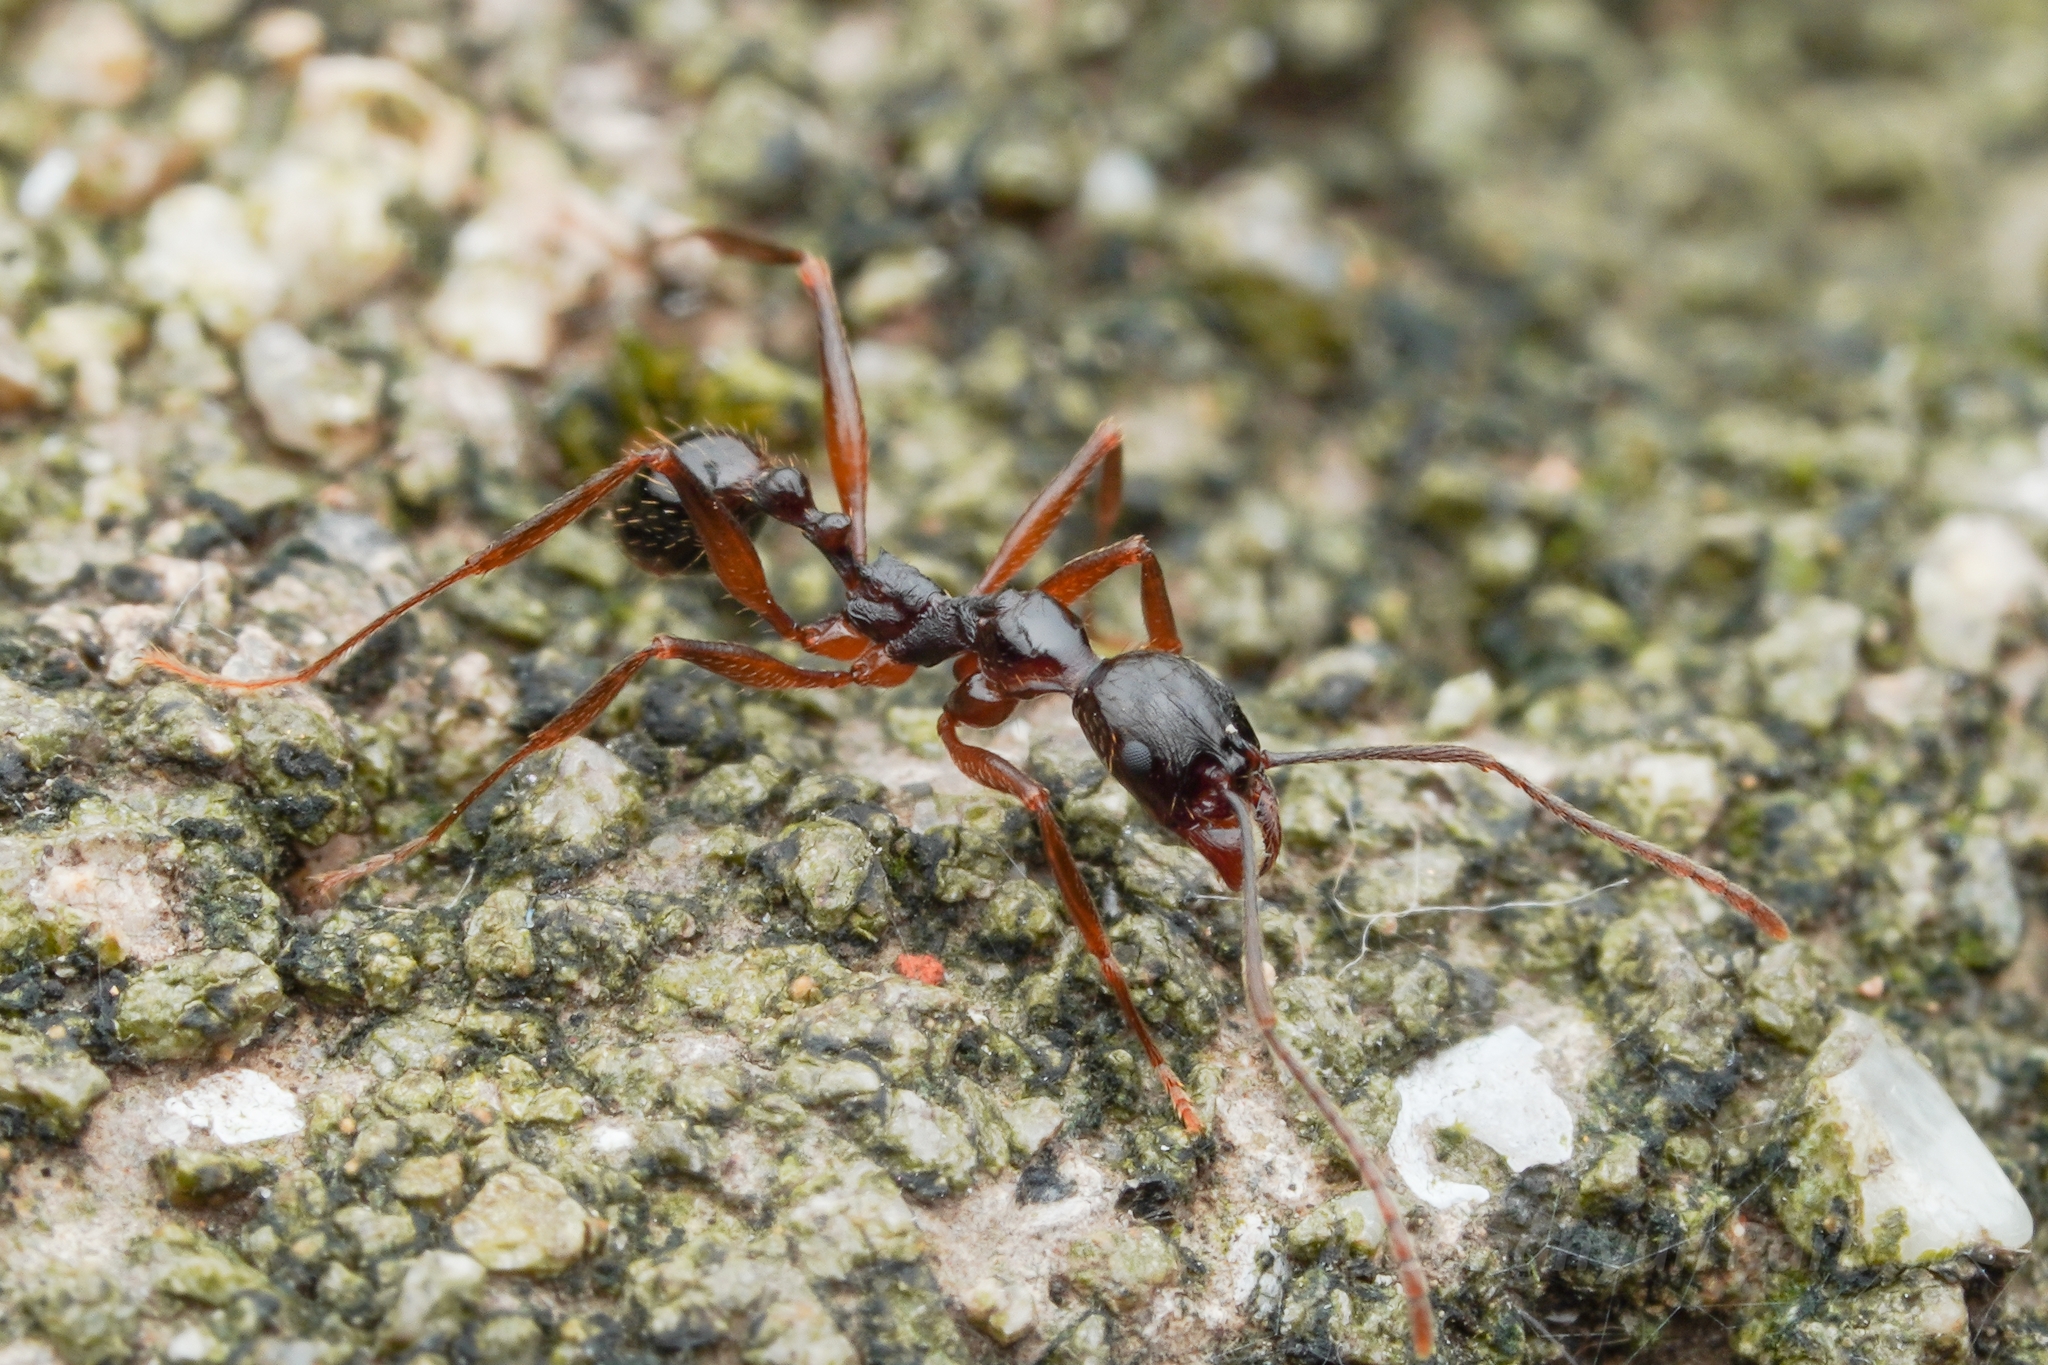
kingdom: Animalia
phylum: Arthropoda
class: Insecta
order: Hymenoptera
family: Formicidae
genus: Aphaenogaster
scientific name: Aphaenogaster famelica
